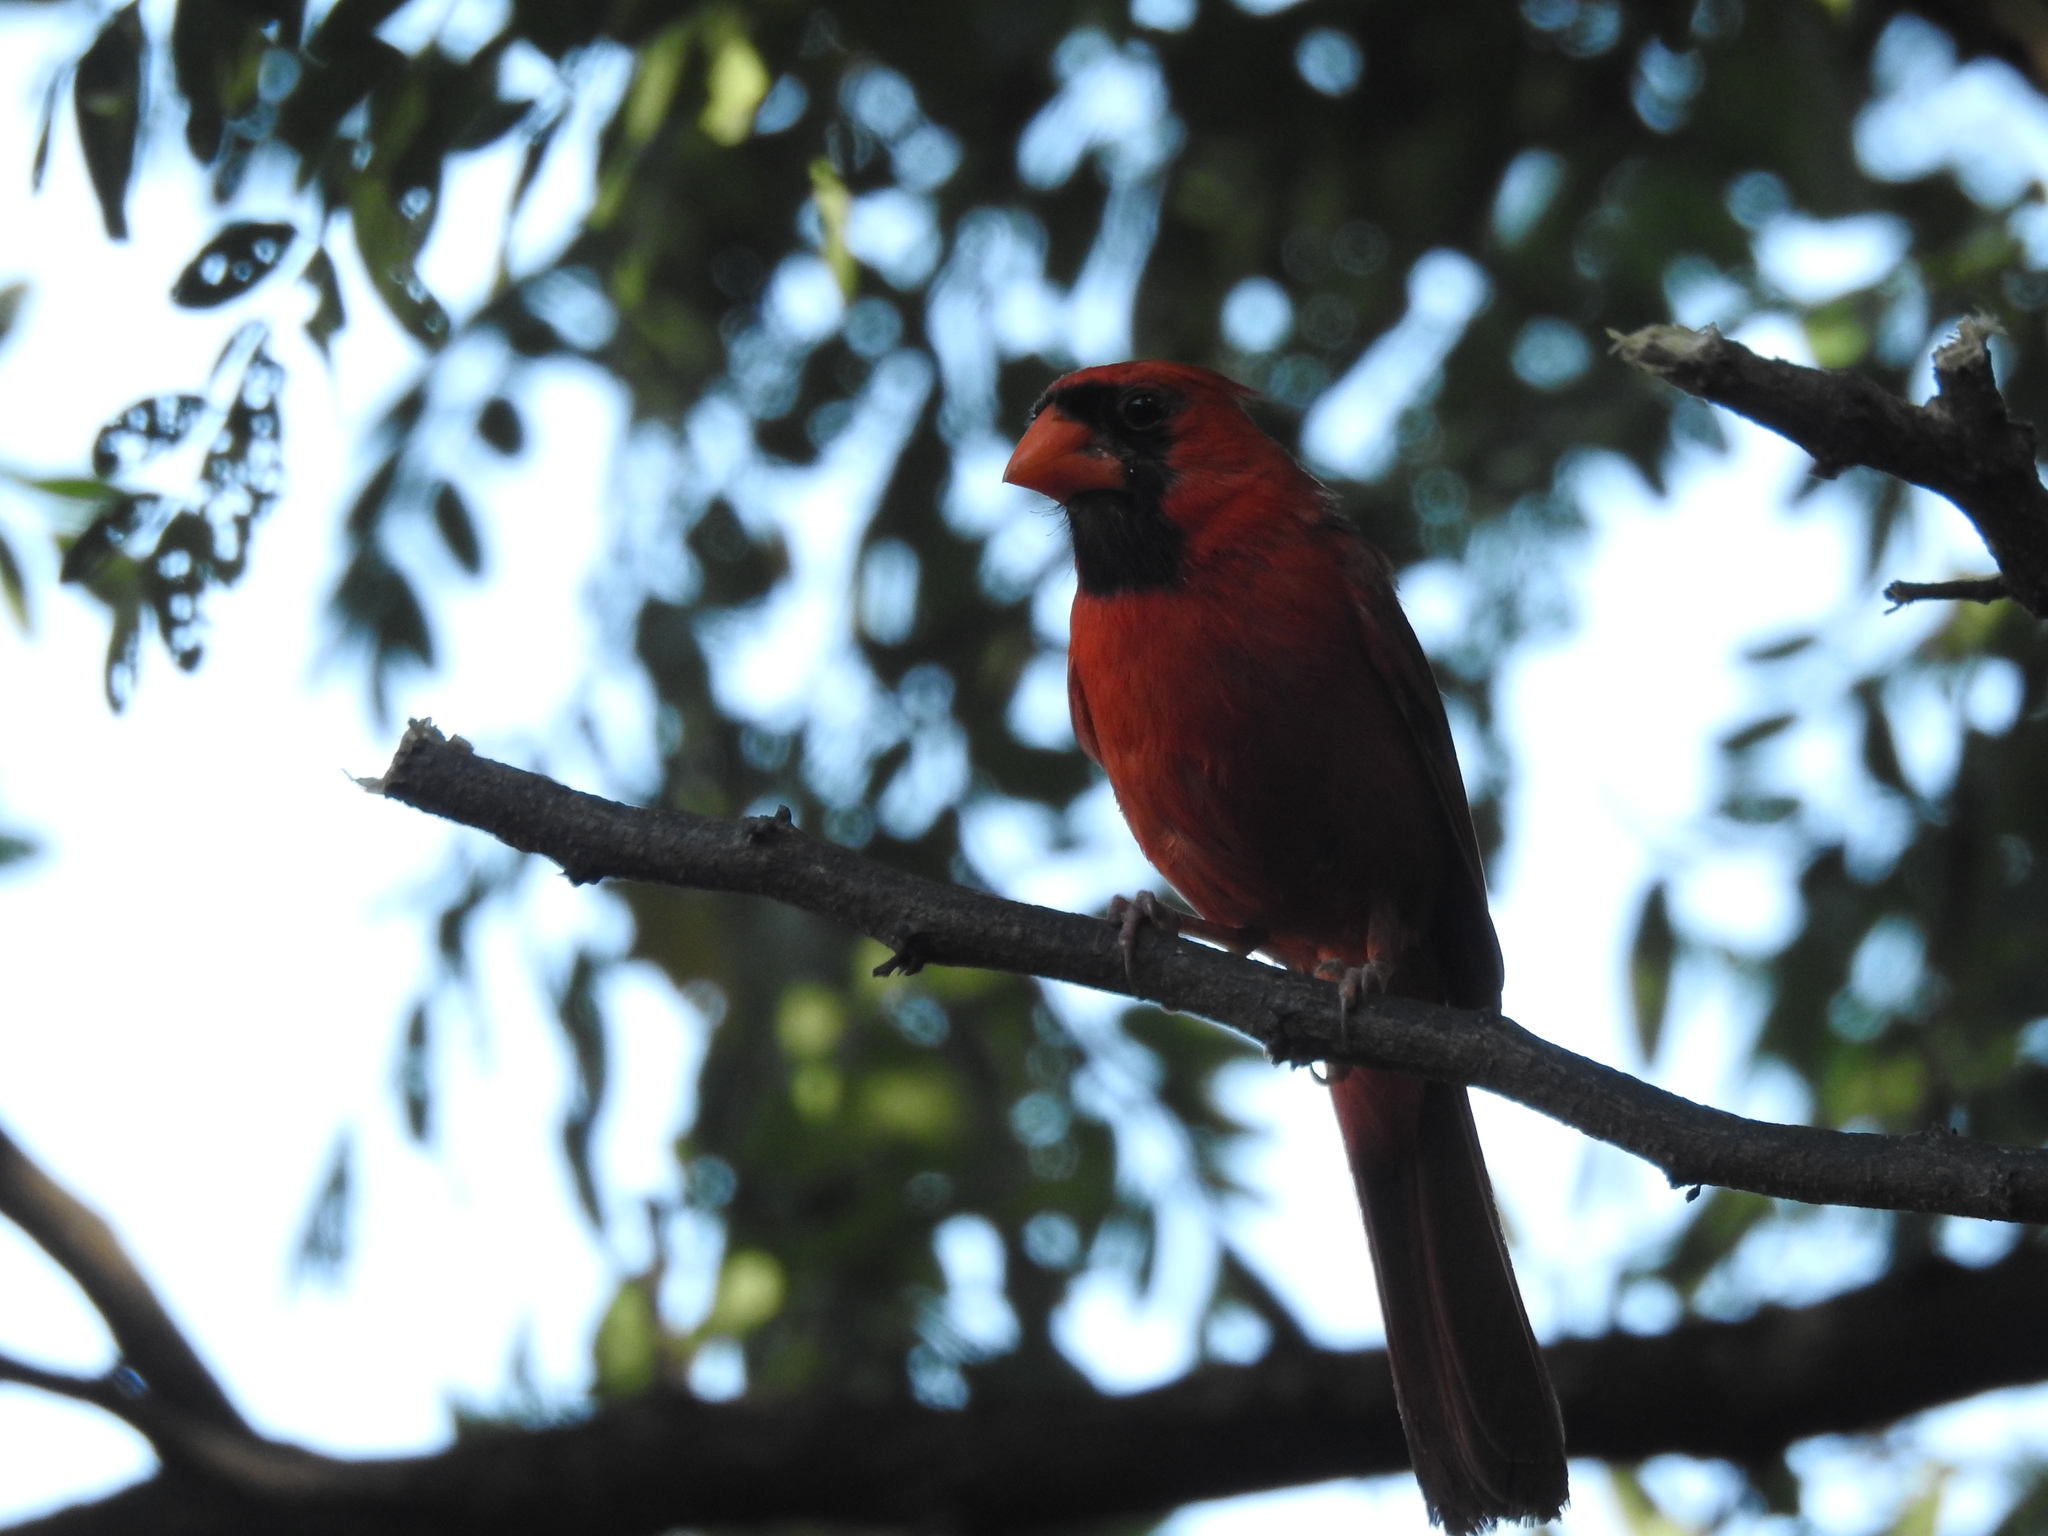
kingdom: Animalia
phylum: Chordata
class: Aves
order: Passeriformes
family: Cardinalidae
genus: Cardinalis
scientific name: Cardinalis cardinalis
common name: Northern cardinal
